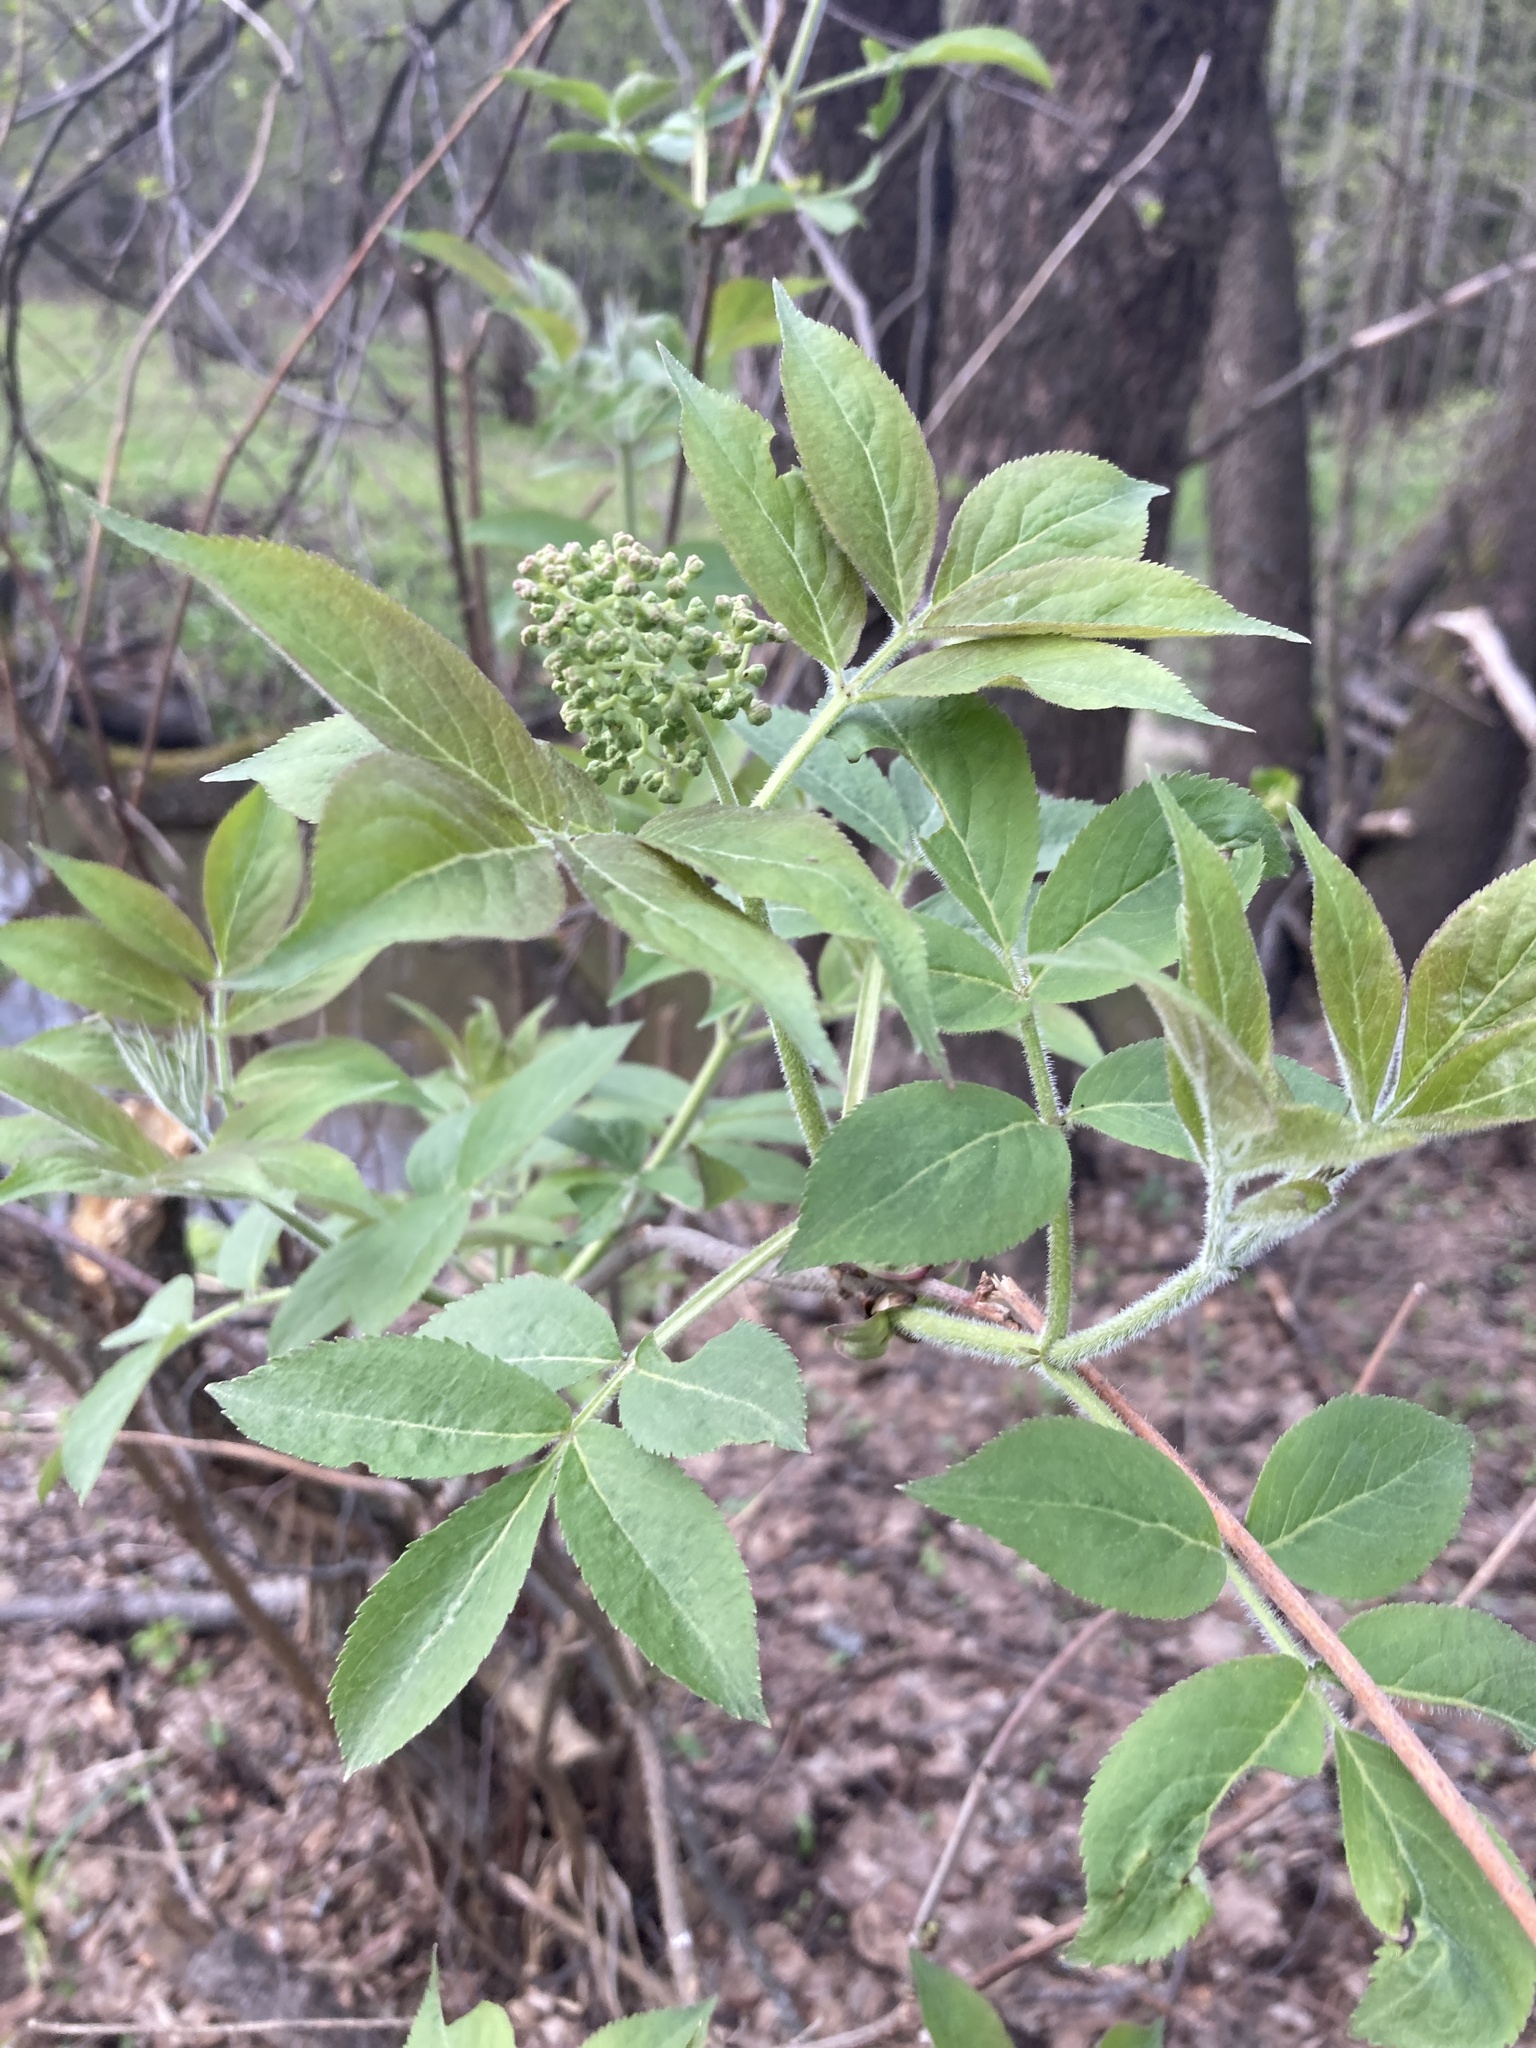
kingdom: Plantae
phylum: Tracheophyta
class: Magnoliopsida
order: Dipsacales
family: Viburnaceae
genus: Sambucus
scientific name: Sambucus racemosa
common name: Red-berried elder
